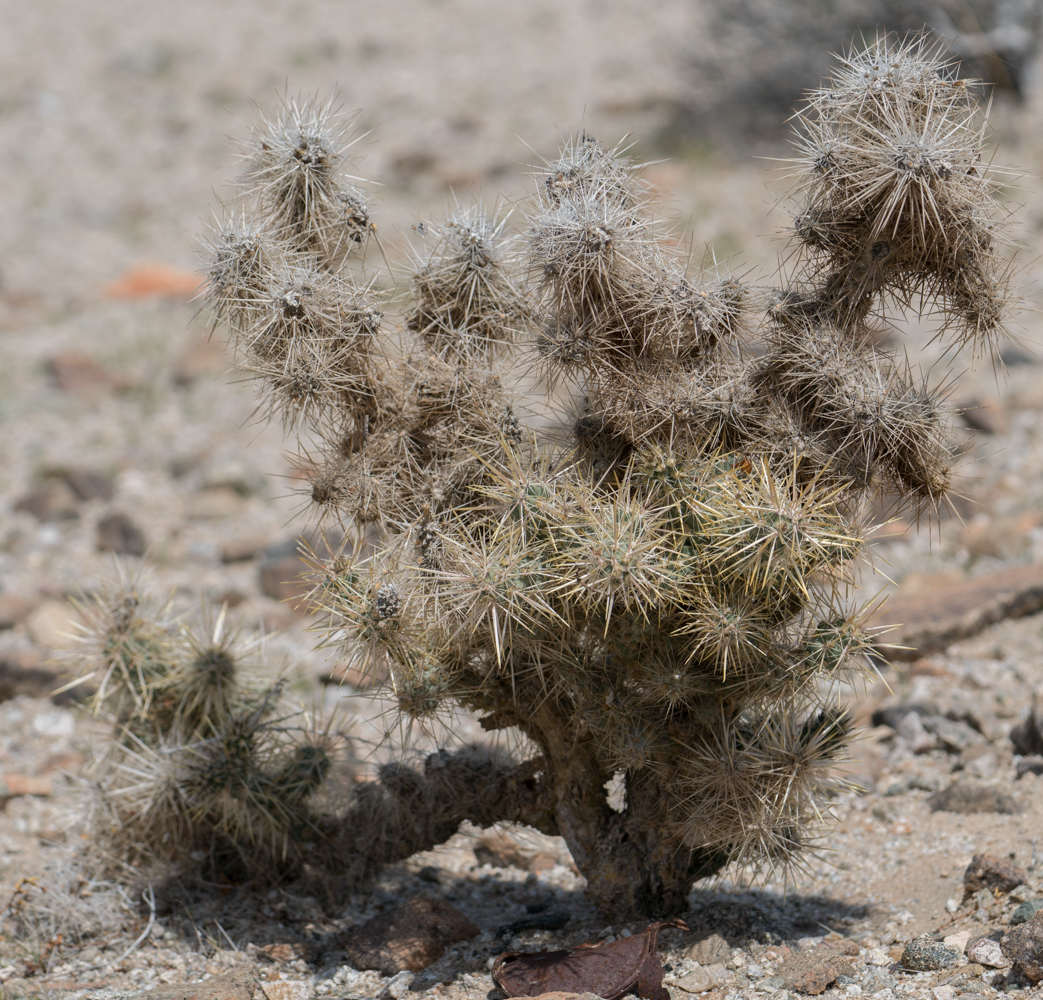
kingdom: Plantae
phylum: Tracheophyta
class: Magnoliopsida
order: Caryophyllales
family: Cactaceae
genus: Cylindropuntia
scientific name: Cylindropuntia echinocarpa
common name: Ground cholla
